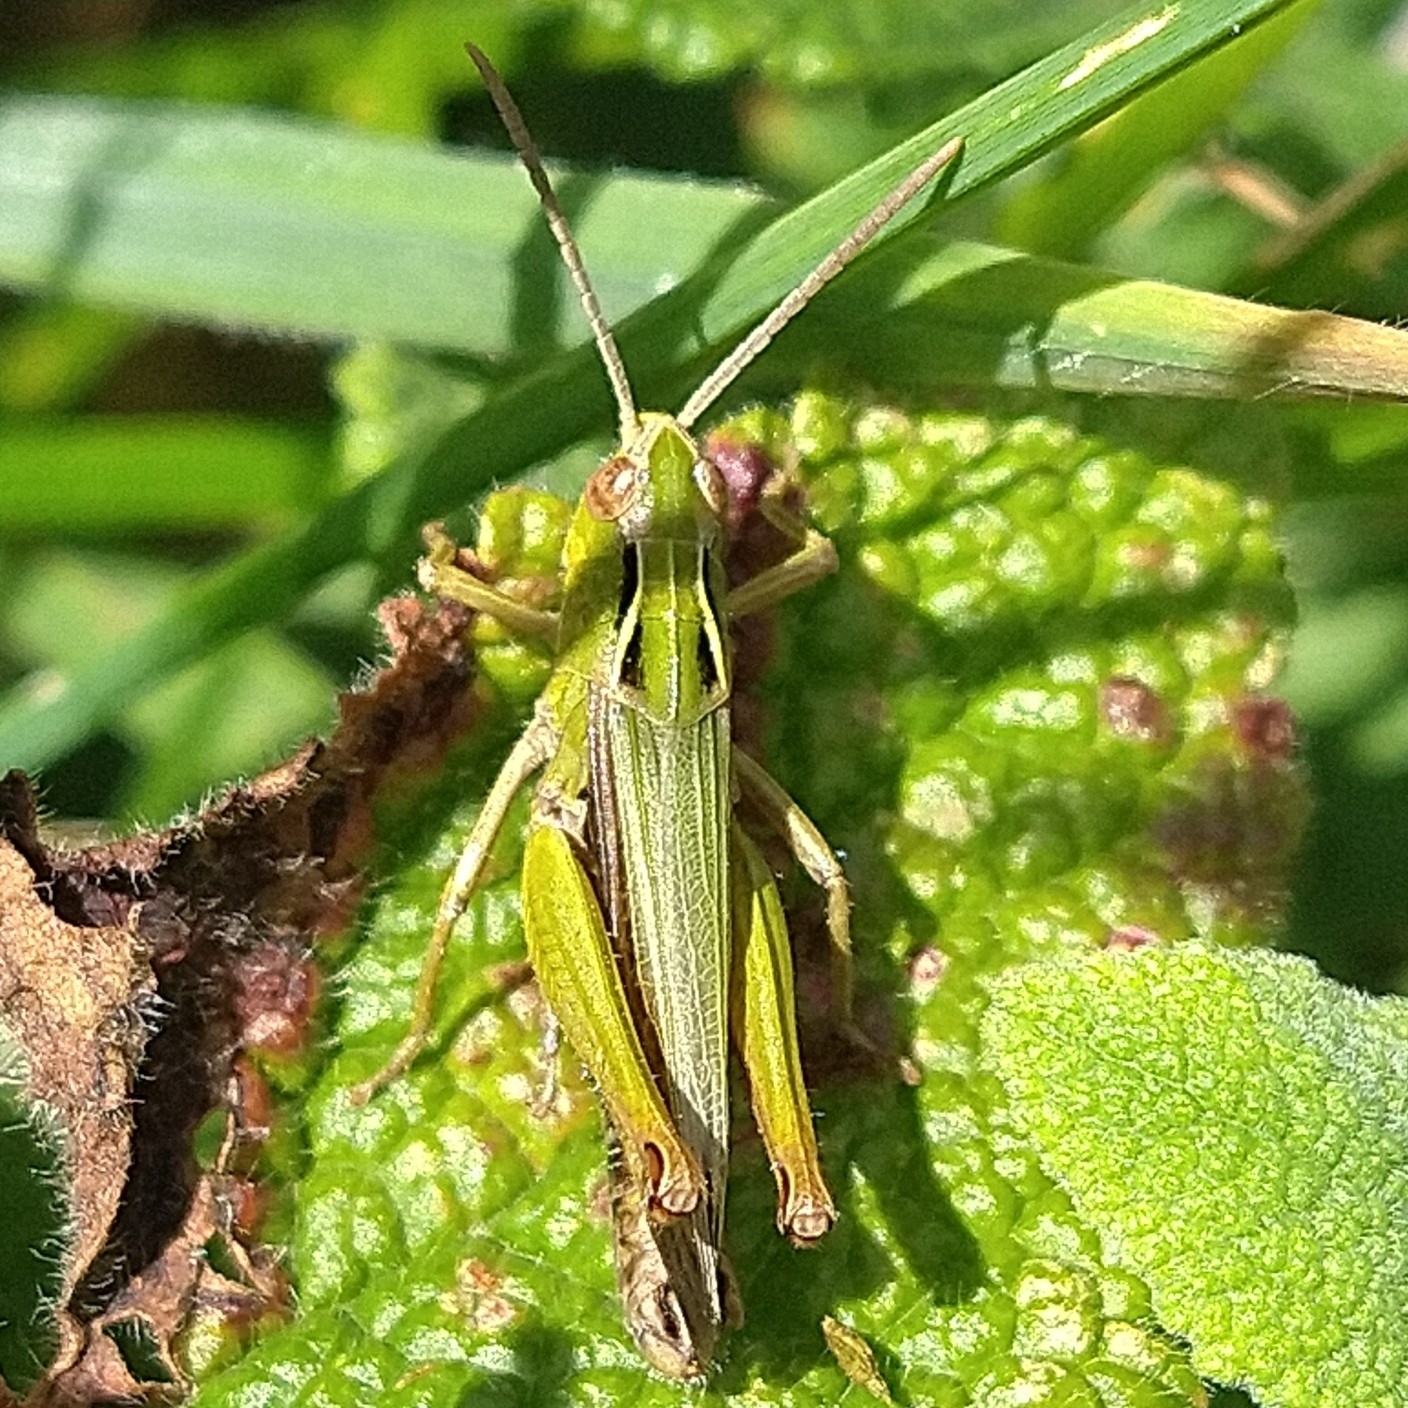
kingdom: Animalia
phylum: Arthropoda
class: Insecta
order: Orthoptera
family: Acrididae
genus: Omocestus
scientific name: Omocestus viridulus
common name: Common green grasshopper
